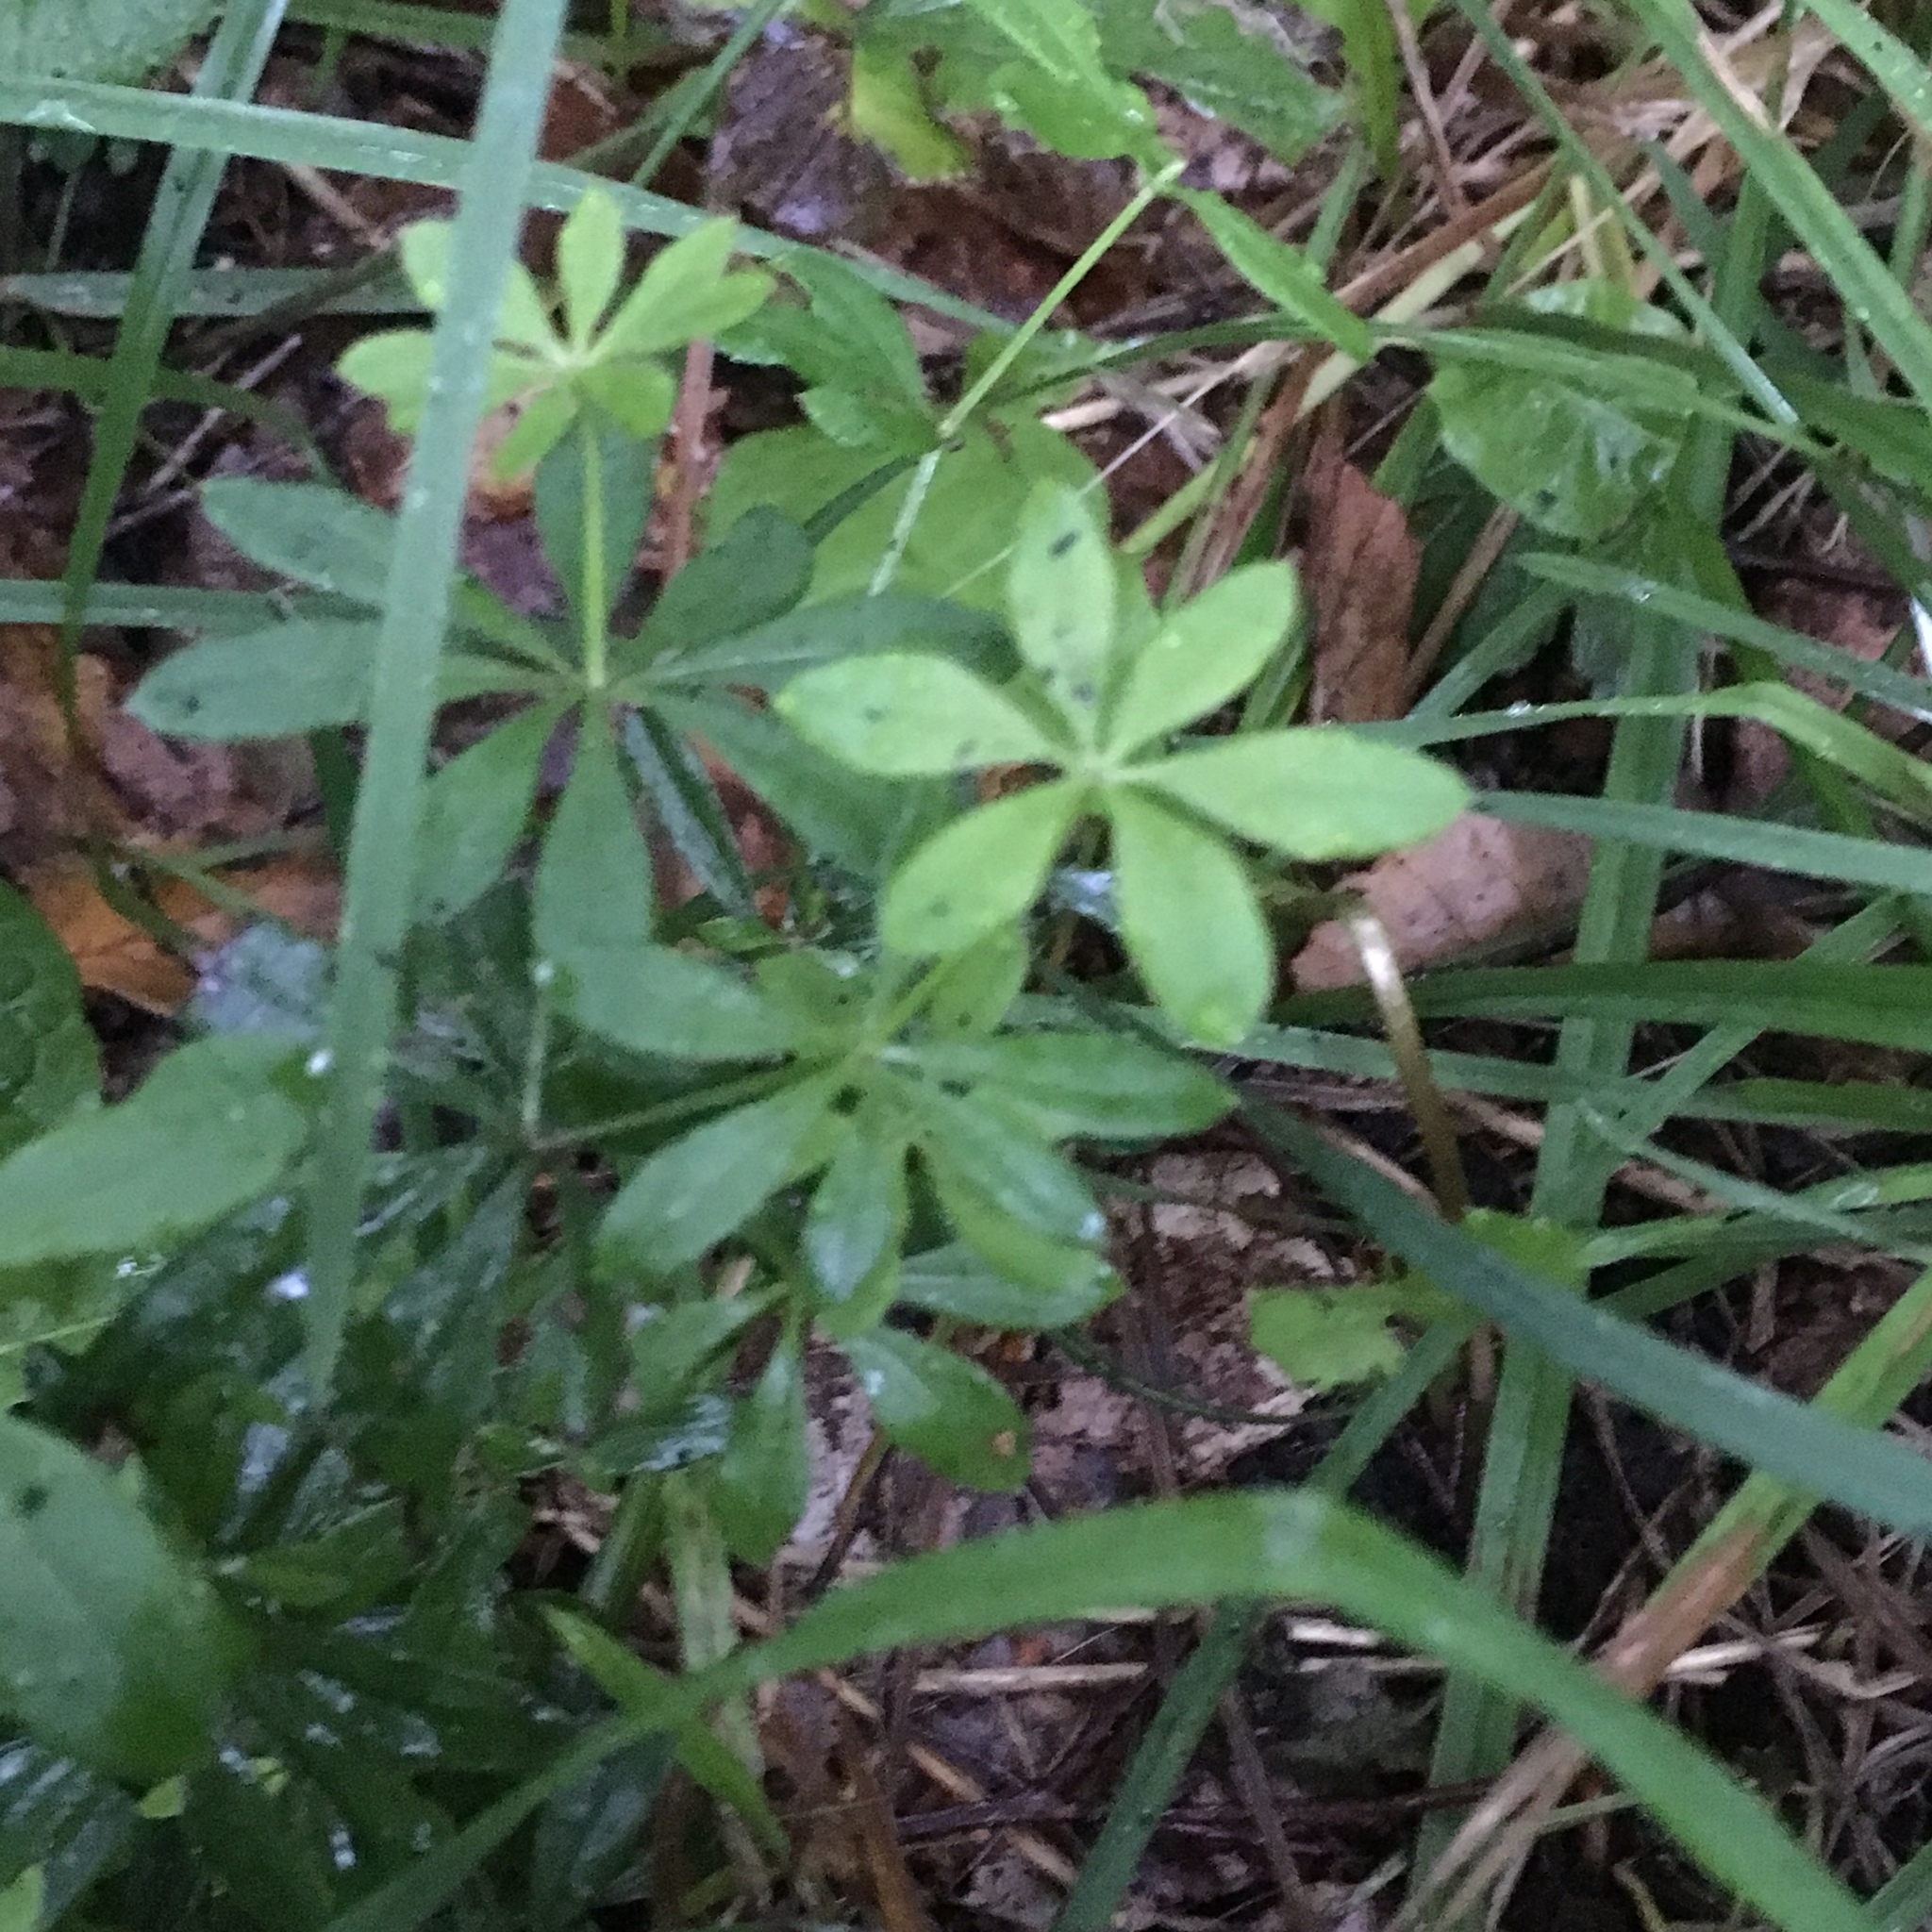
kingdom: Plantae
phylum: Tracheophyta
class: Magnoliopsida
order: Gentianales
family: Rubiaceae
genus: Galium
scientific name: Galium odoratum
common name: Sweet woodruff
